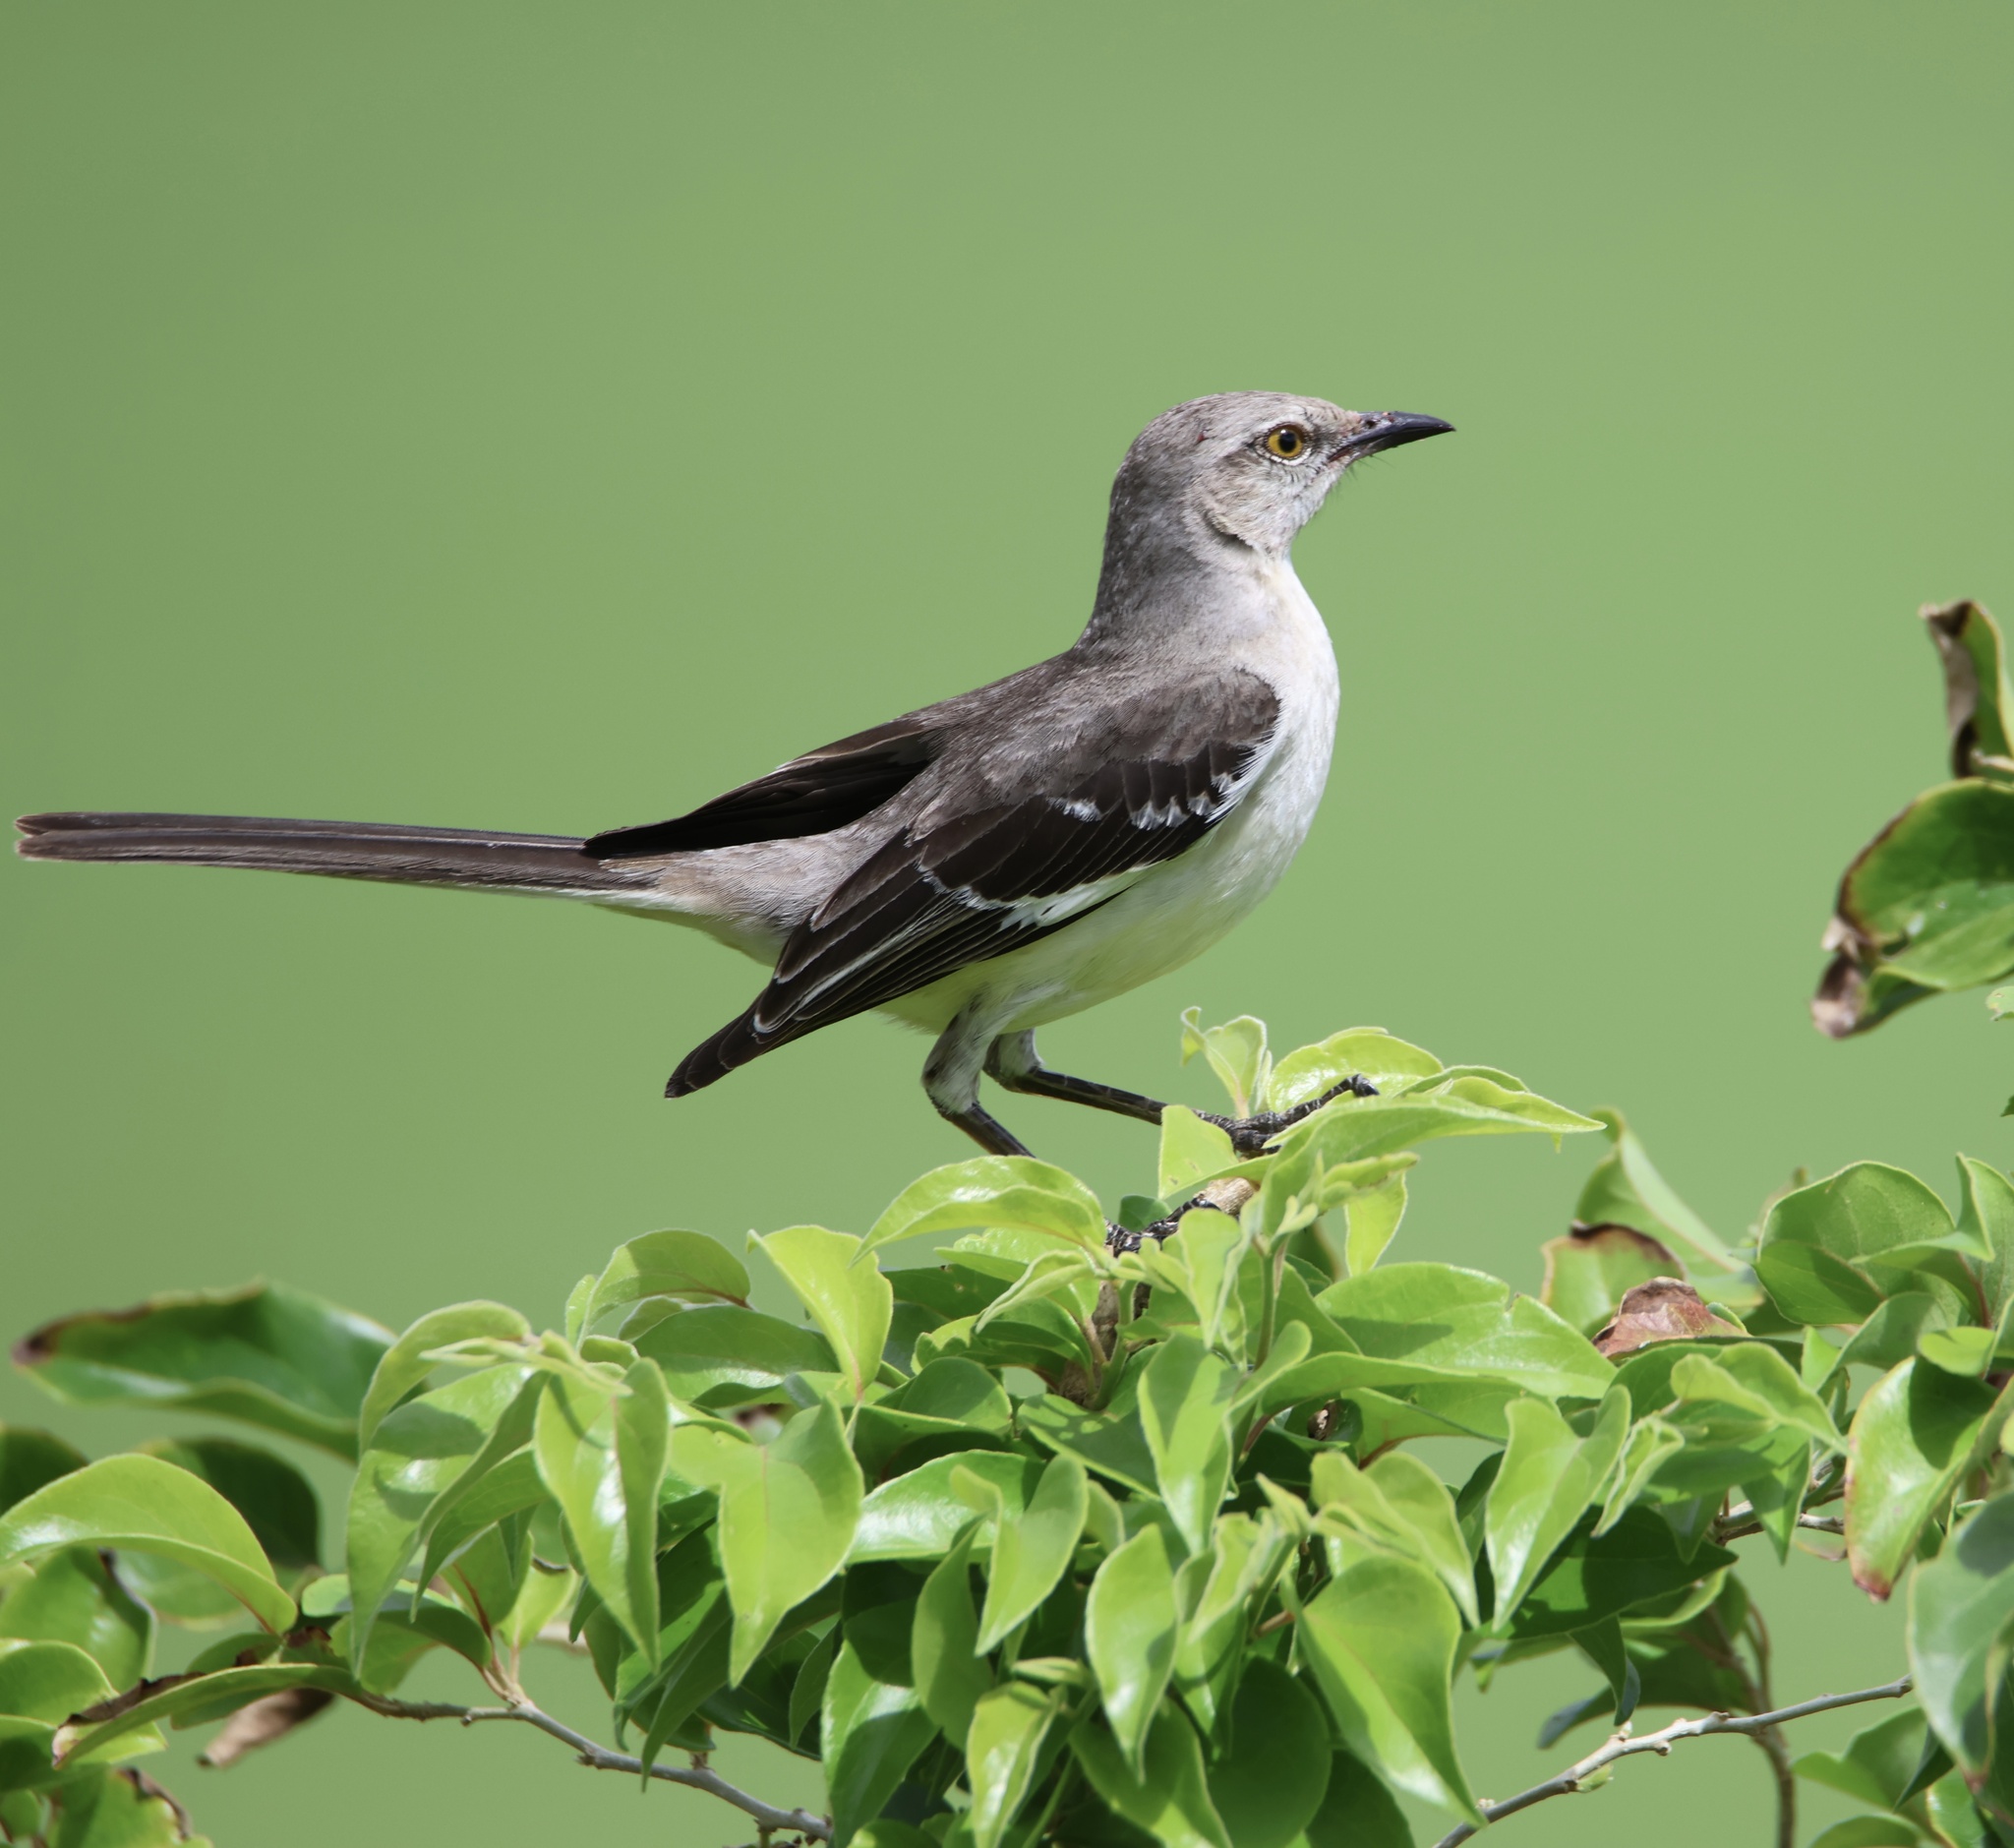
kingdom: Animalia
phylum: Chordata
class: Aves
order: Passeriformes
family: Mimidae
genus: Mimus
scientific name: Mimus polyglottos
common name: Northern mockingbird
